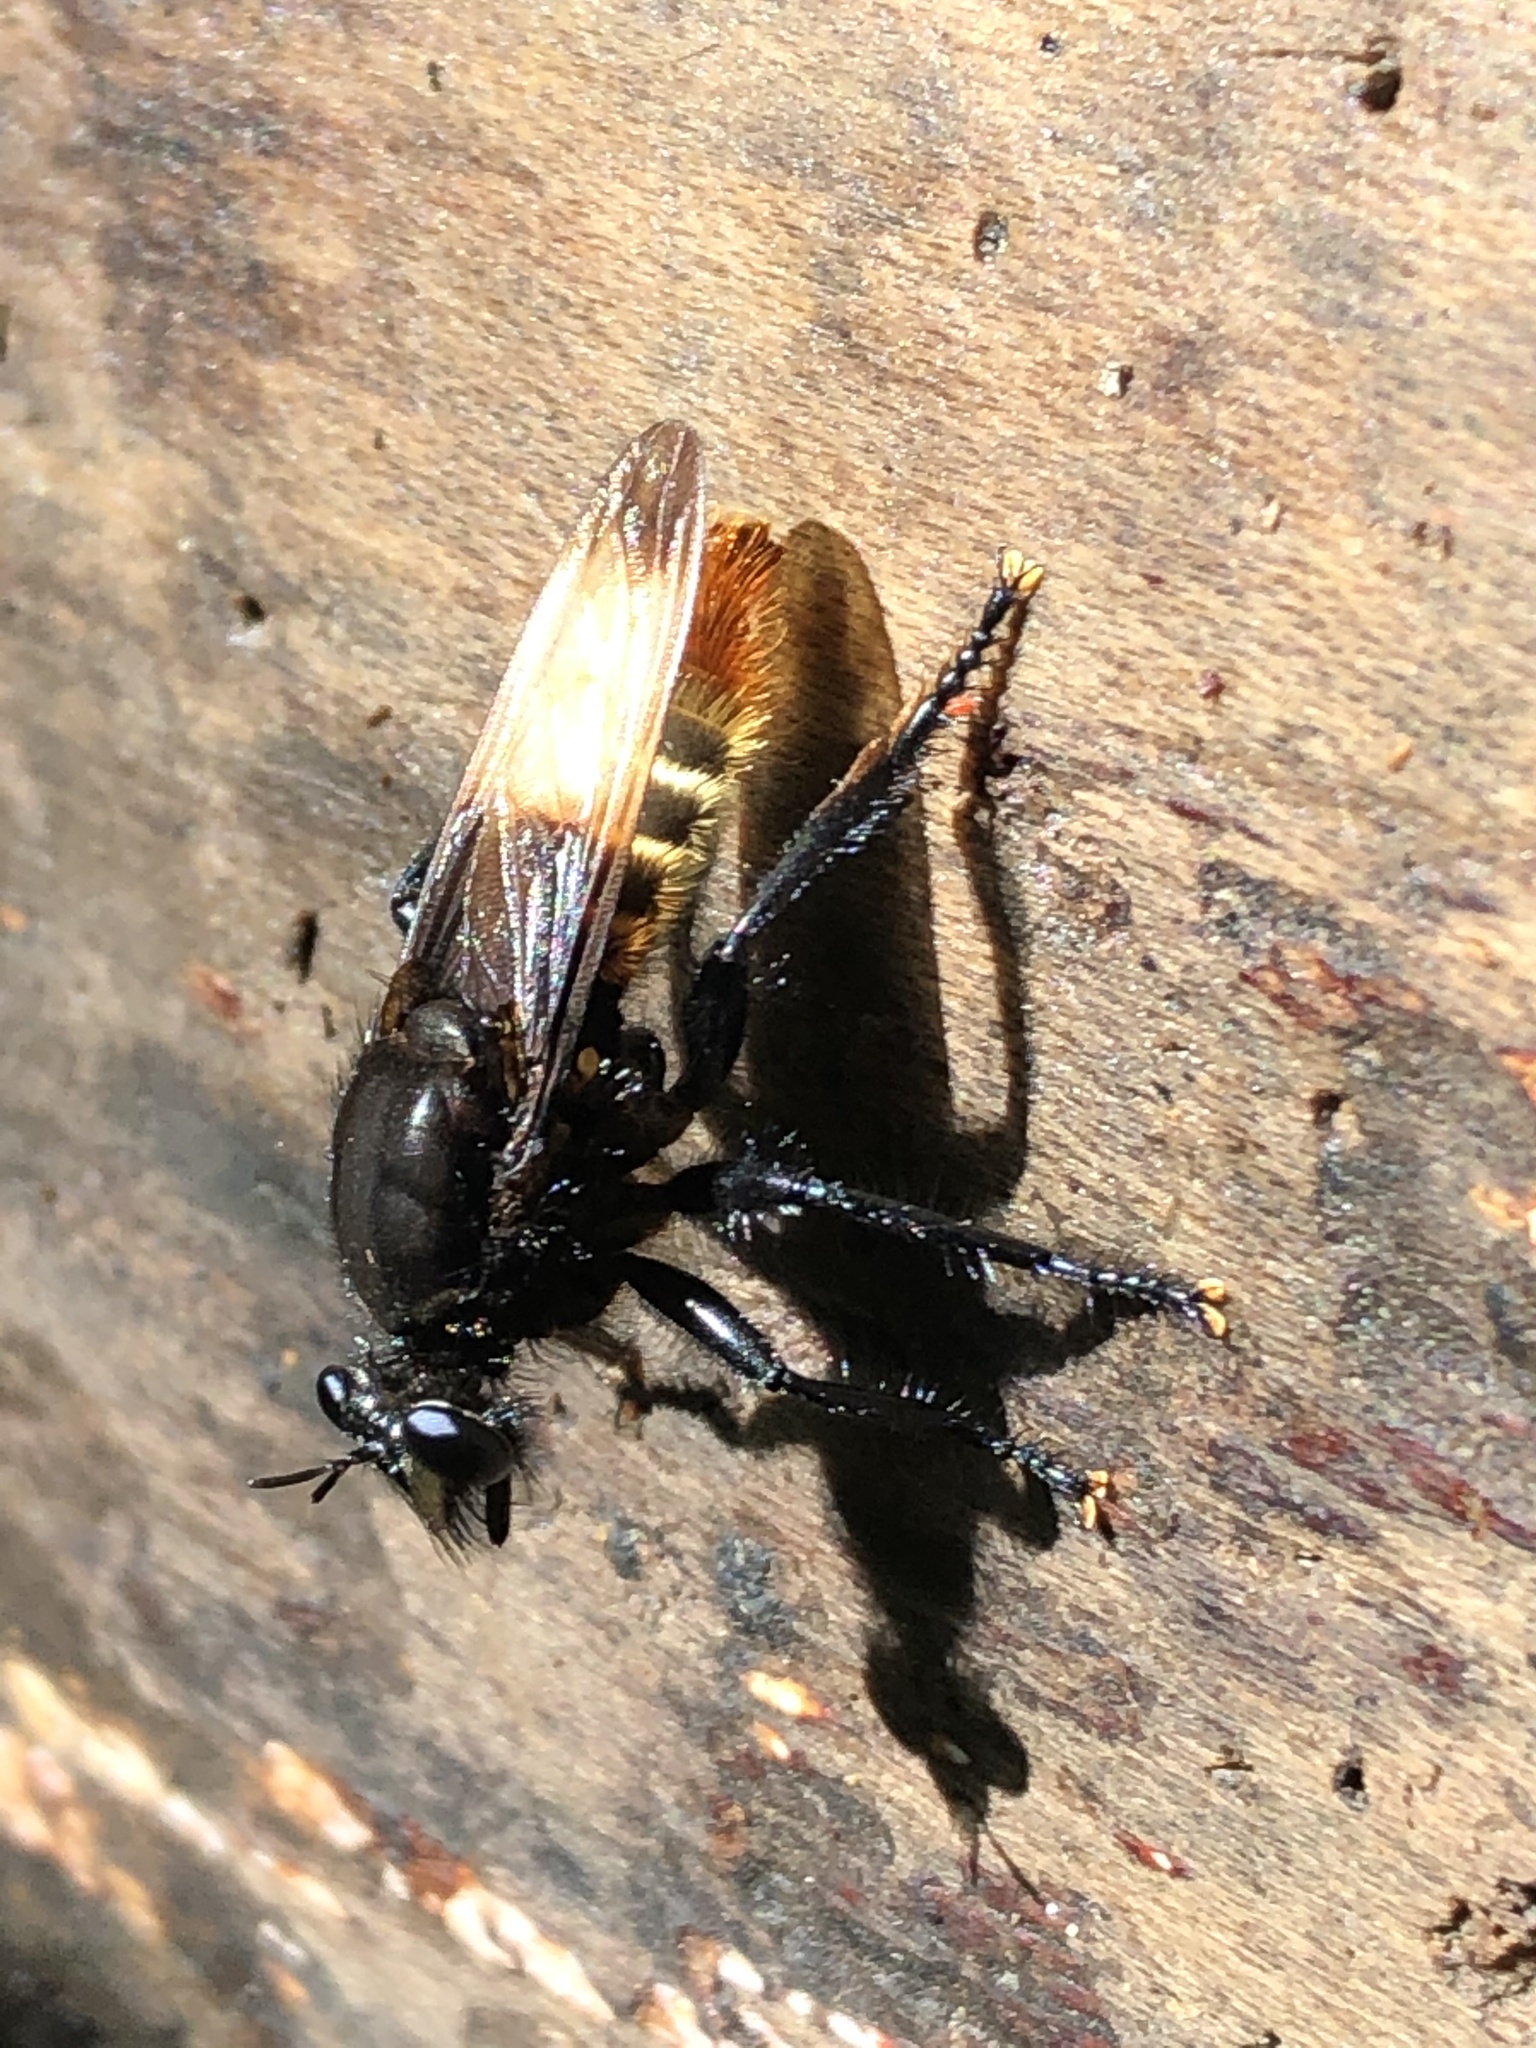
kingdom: Animalia
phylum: Arthropoda
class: Insecta
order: Diptera
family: Asilidae
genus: Dasyllis
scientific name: Dasyllis haemorrhoa
